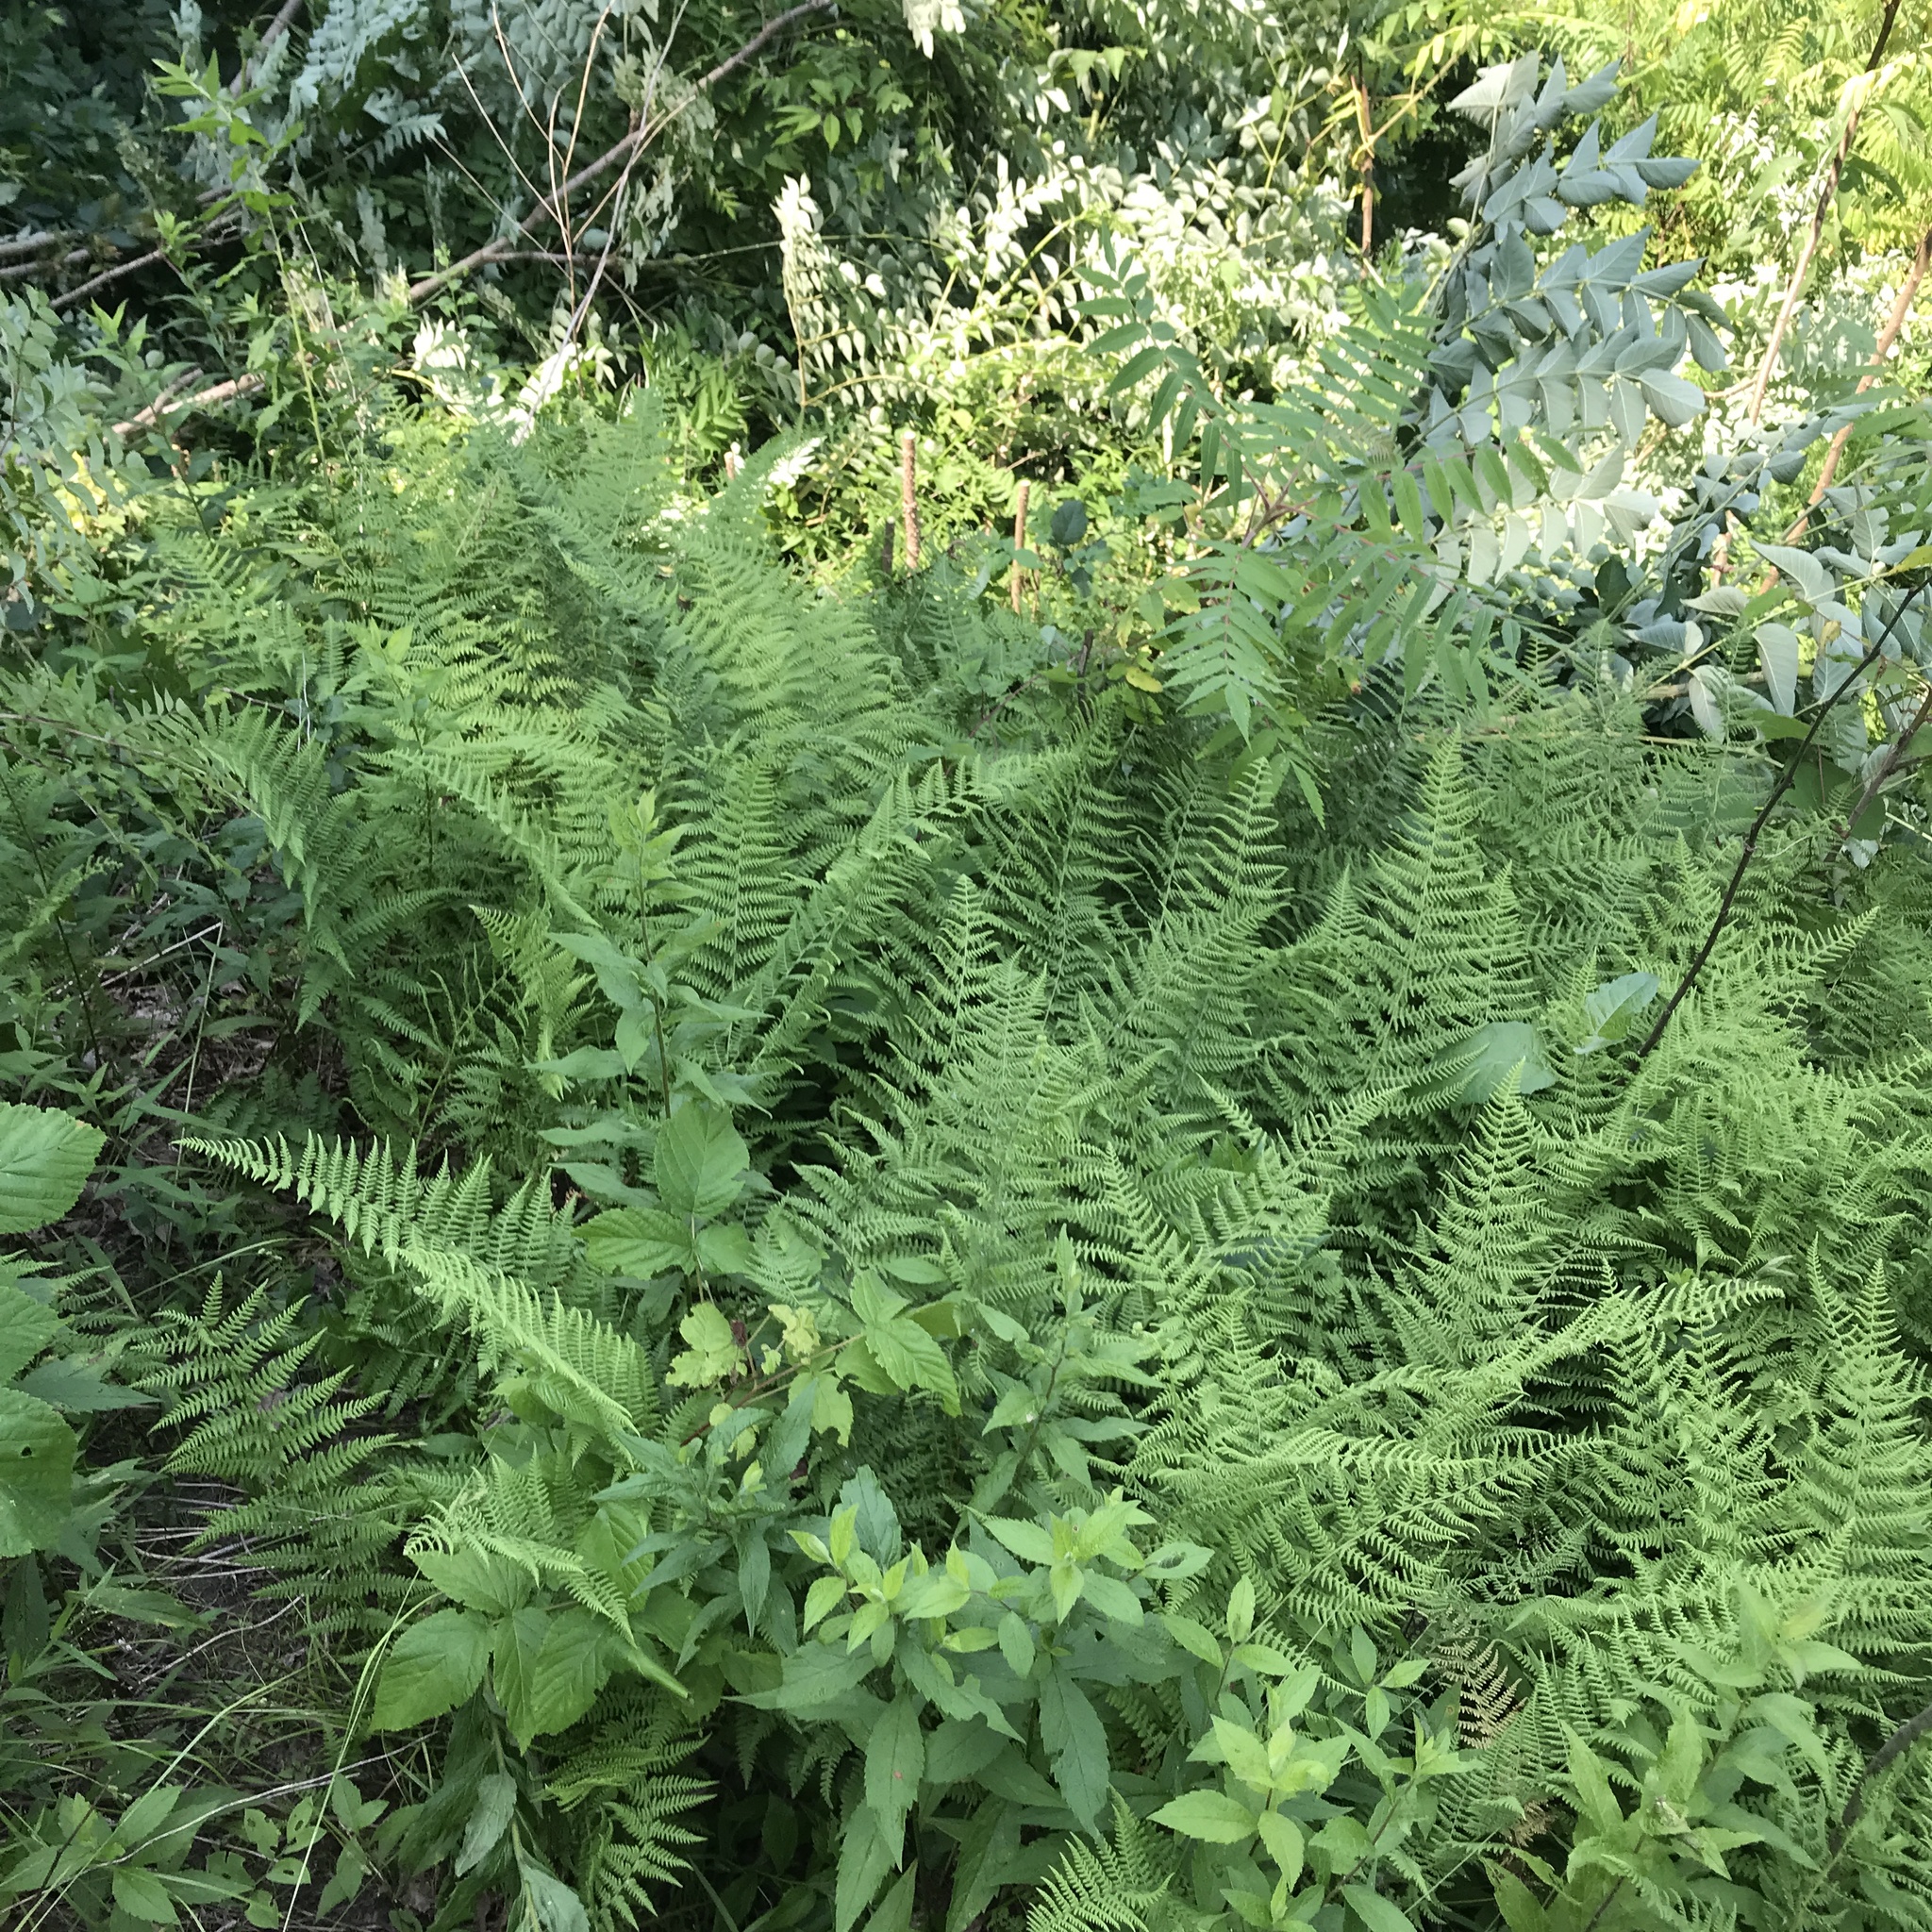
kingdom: Plantae
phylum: Tracheophyta
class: Polypodiopsida
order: Polypodiales
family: Dennstaedtiaceae
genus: Sitobolium
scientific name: Sitobolium punctilobum
